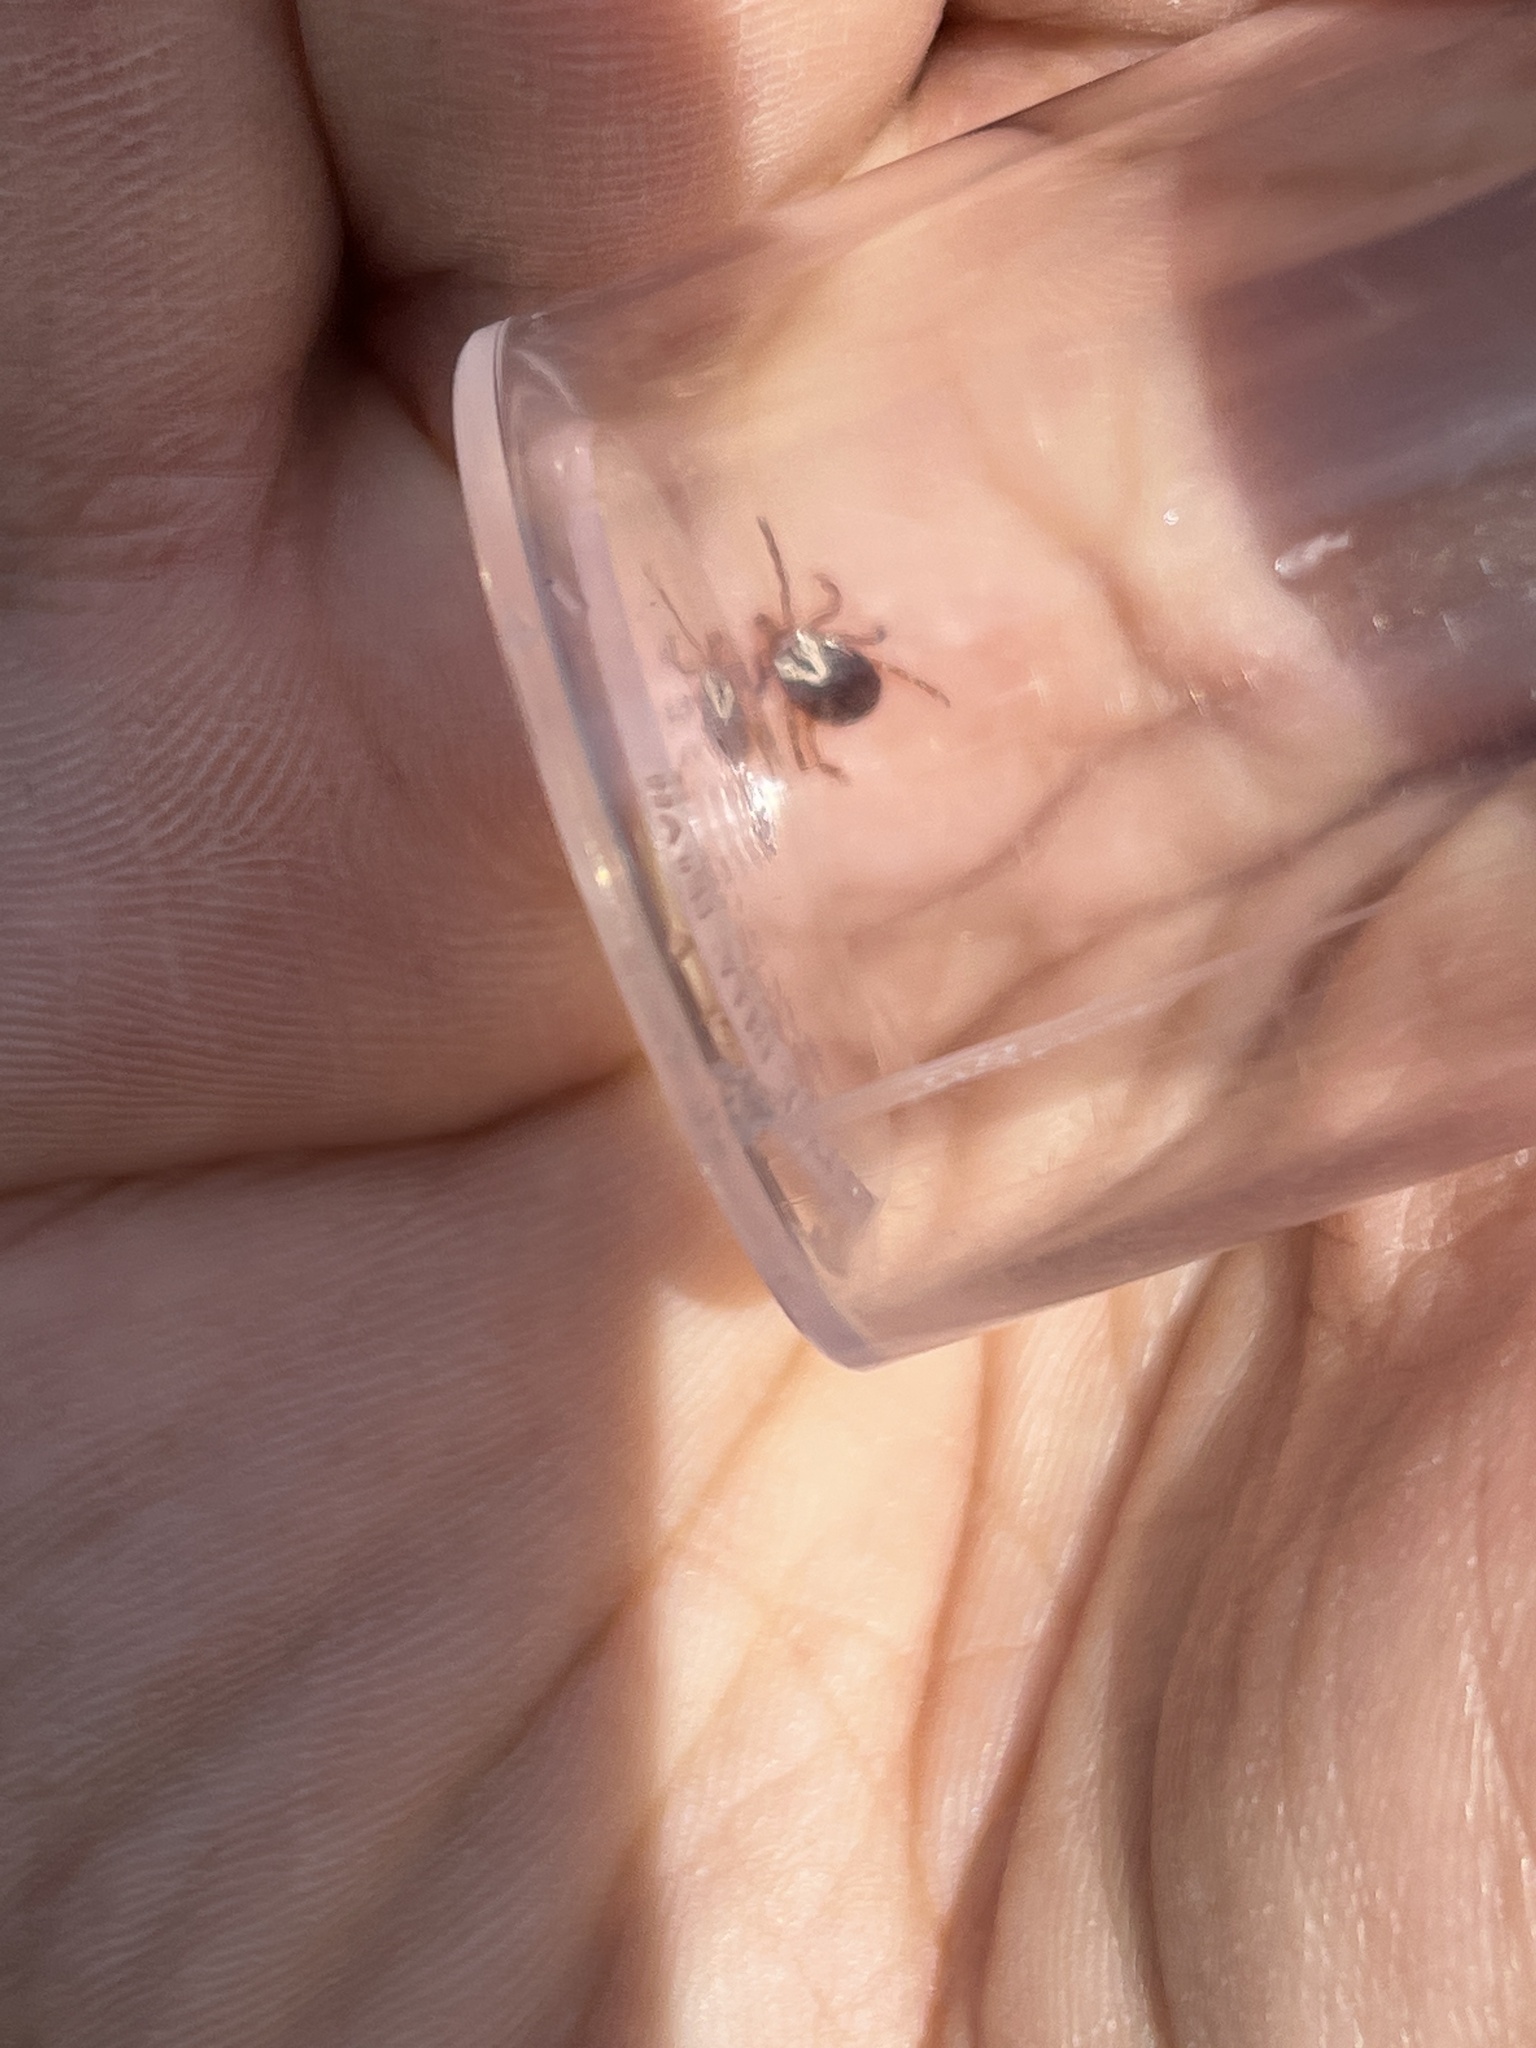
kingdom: Animalia
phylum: Arthropoda
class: Arachnida
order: Ixodida
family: Ixodidae
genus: Amblyomma
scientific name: Amblyomma maculatum
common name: Gulf coast tick
